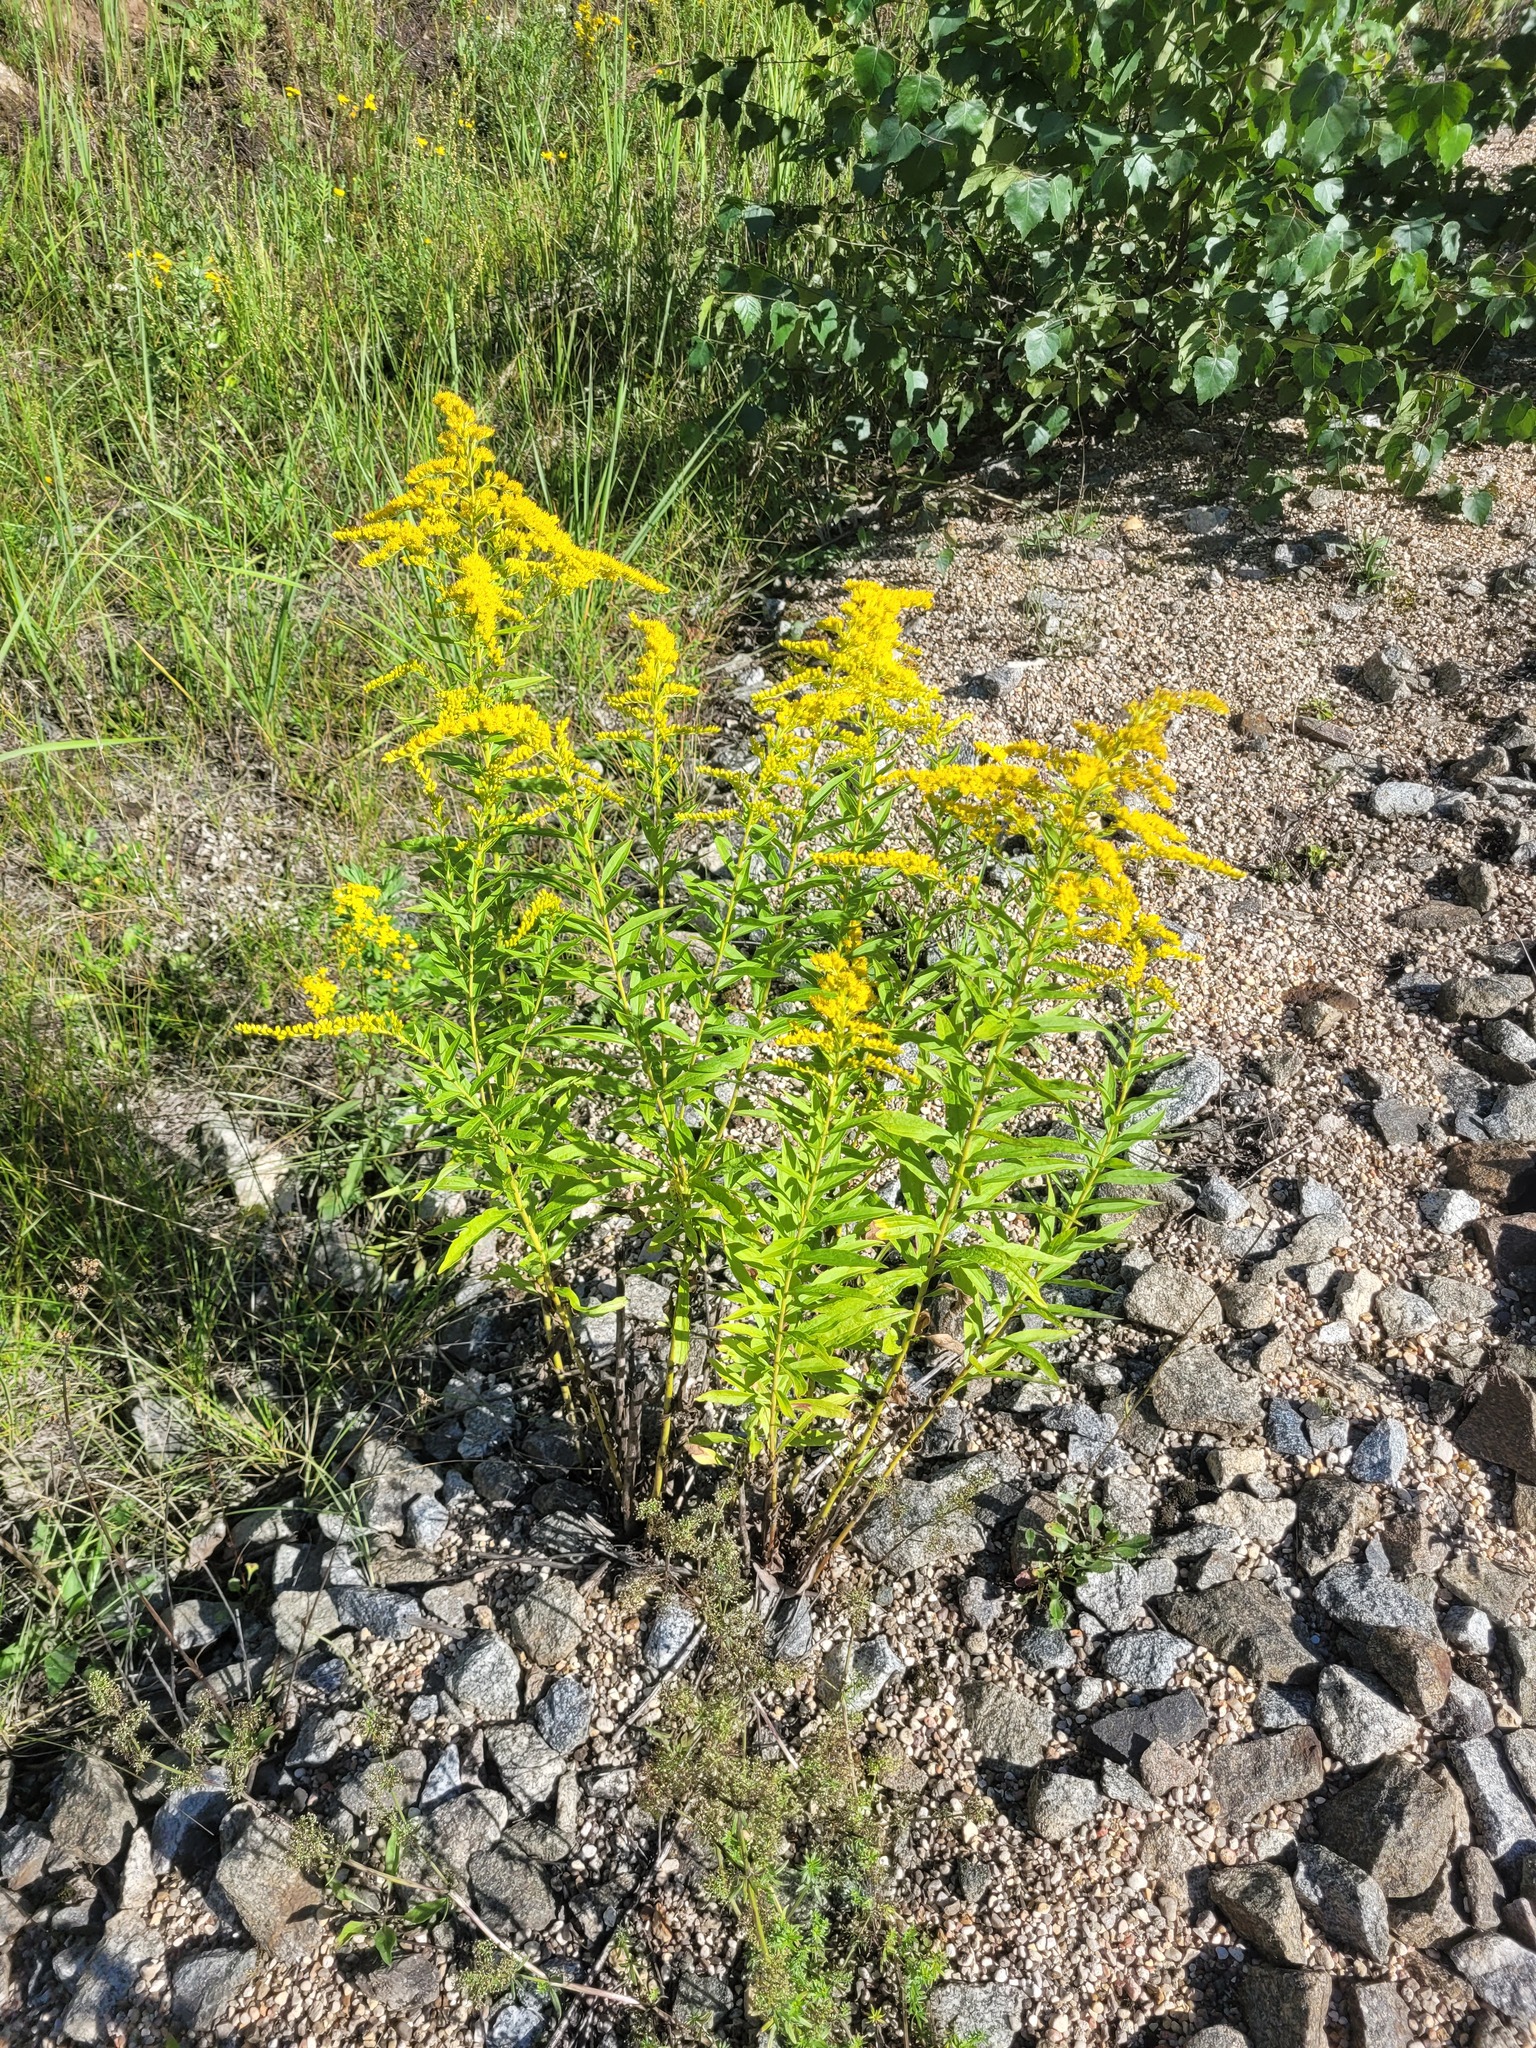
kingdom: Plantae
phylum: Tracheophyta
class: Magnoliopsida
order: Asterales
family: Asteraceae
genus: Solidago
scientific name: Solidago canadensis
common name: Canada goldenrod
